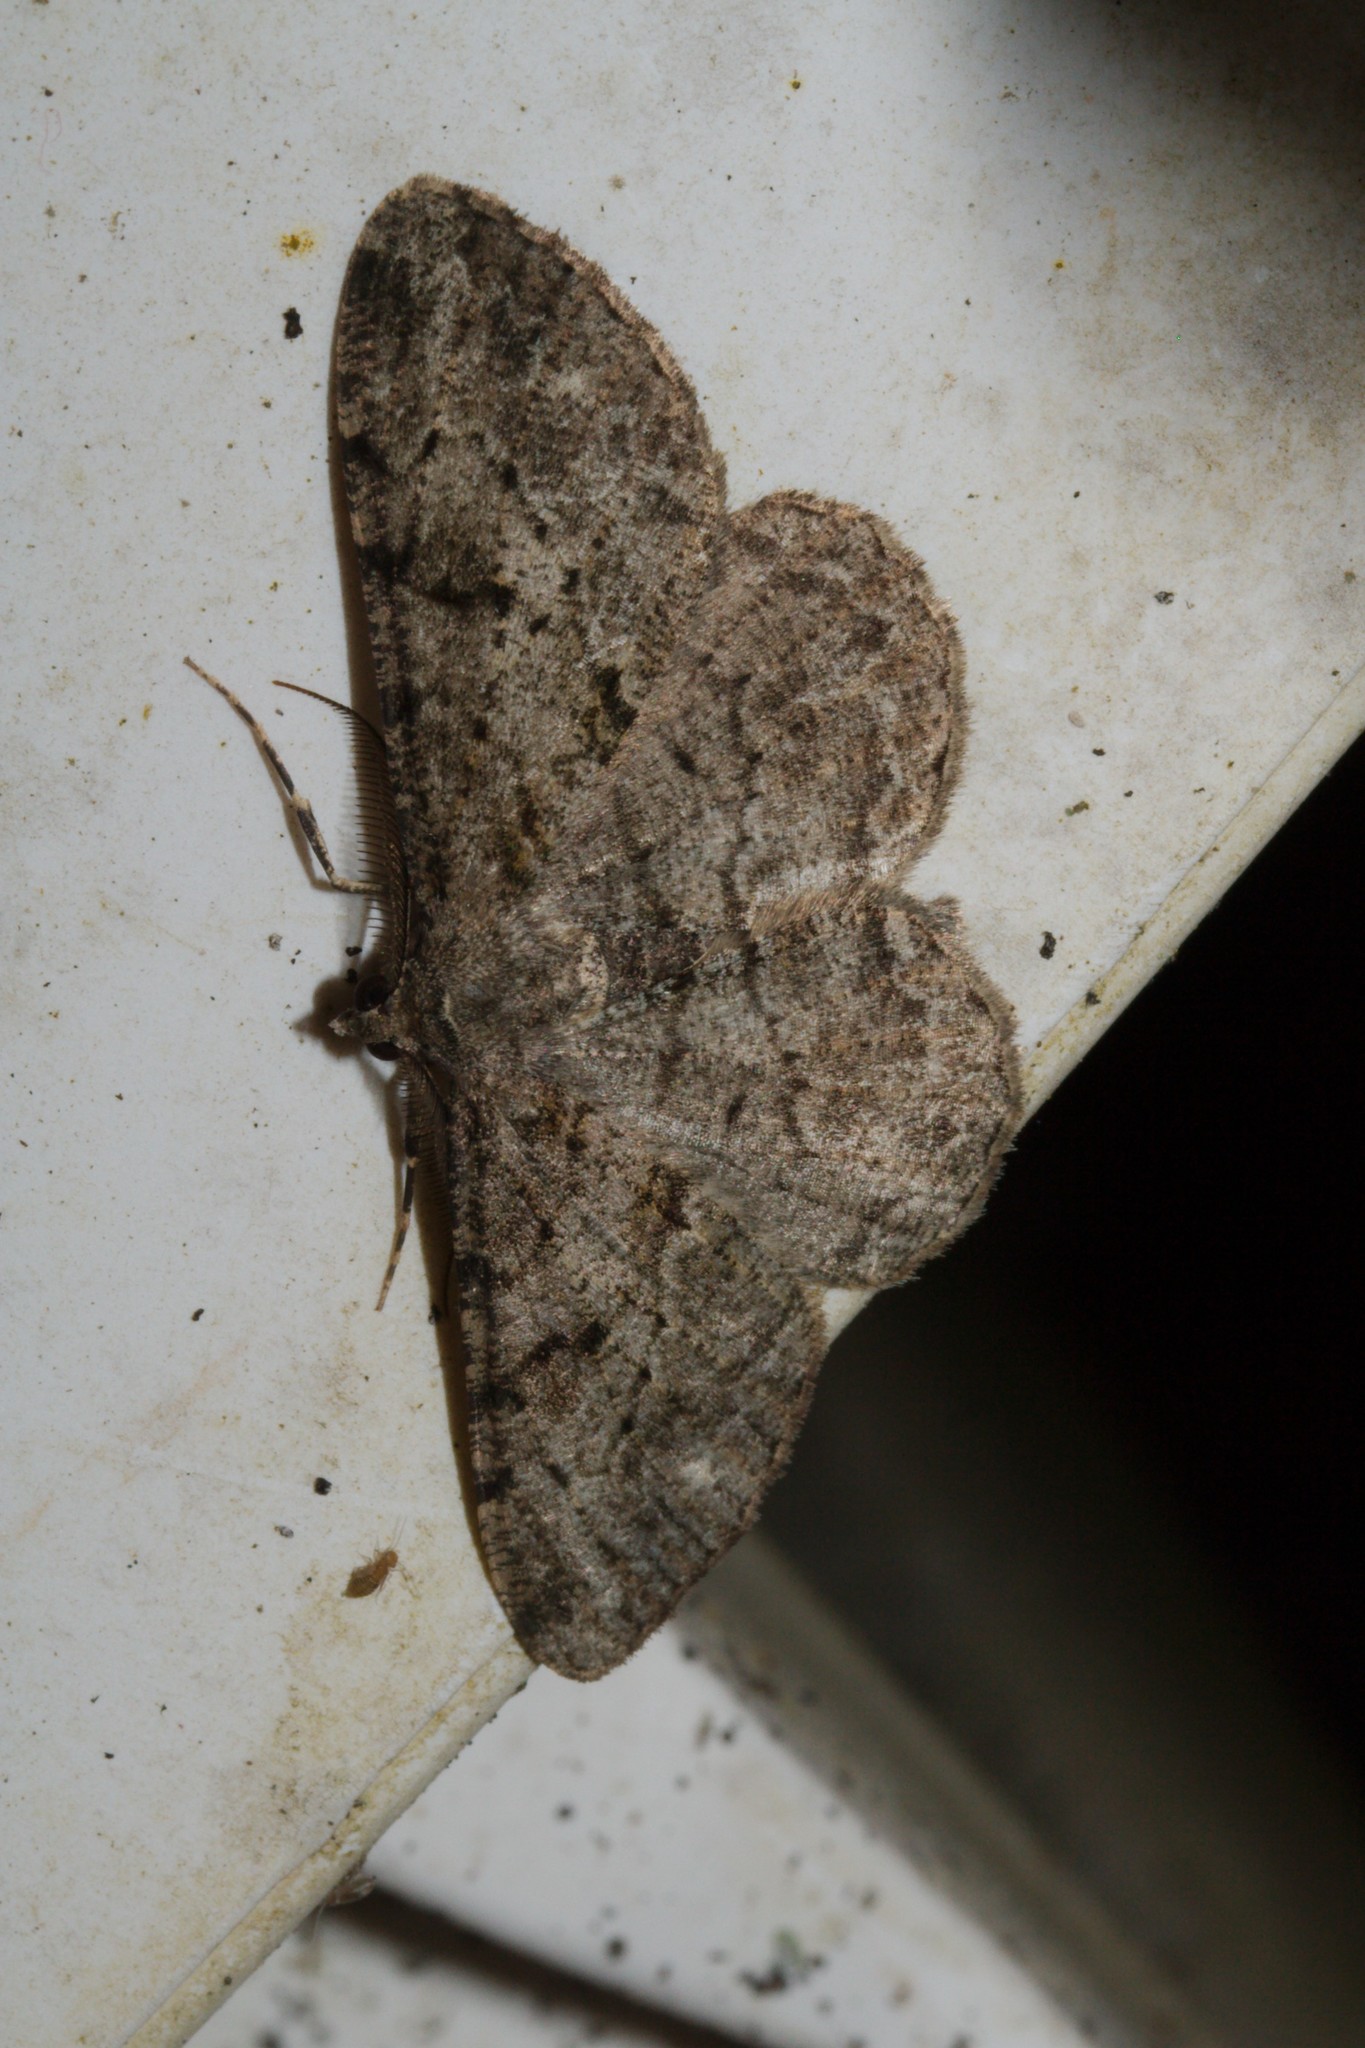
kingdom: Animalia
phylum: Arthropoda
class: Insecta
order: Lepidoptera
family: Geometridae
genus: Peribatodes
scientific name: Peribatodes rhomboidaria
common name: Willow beauty
